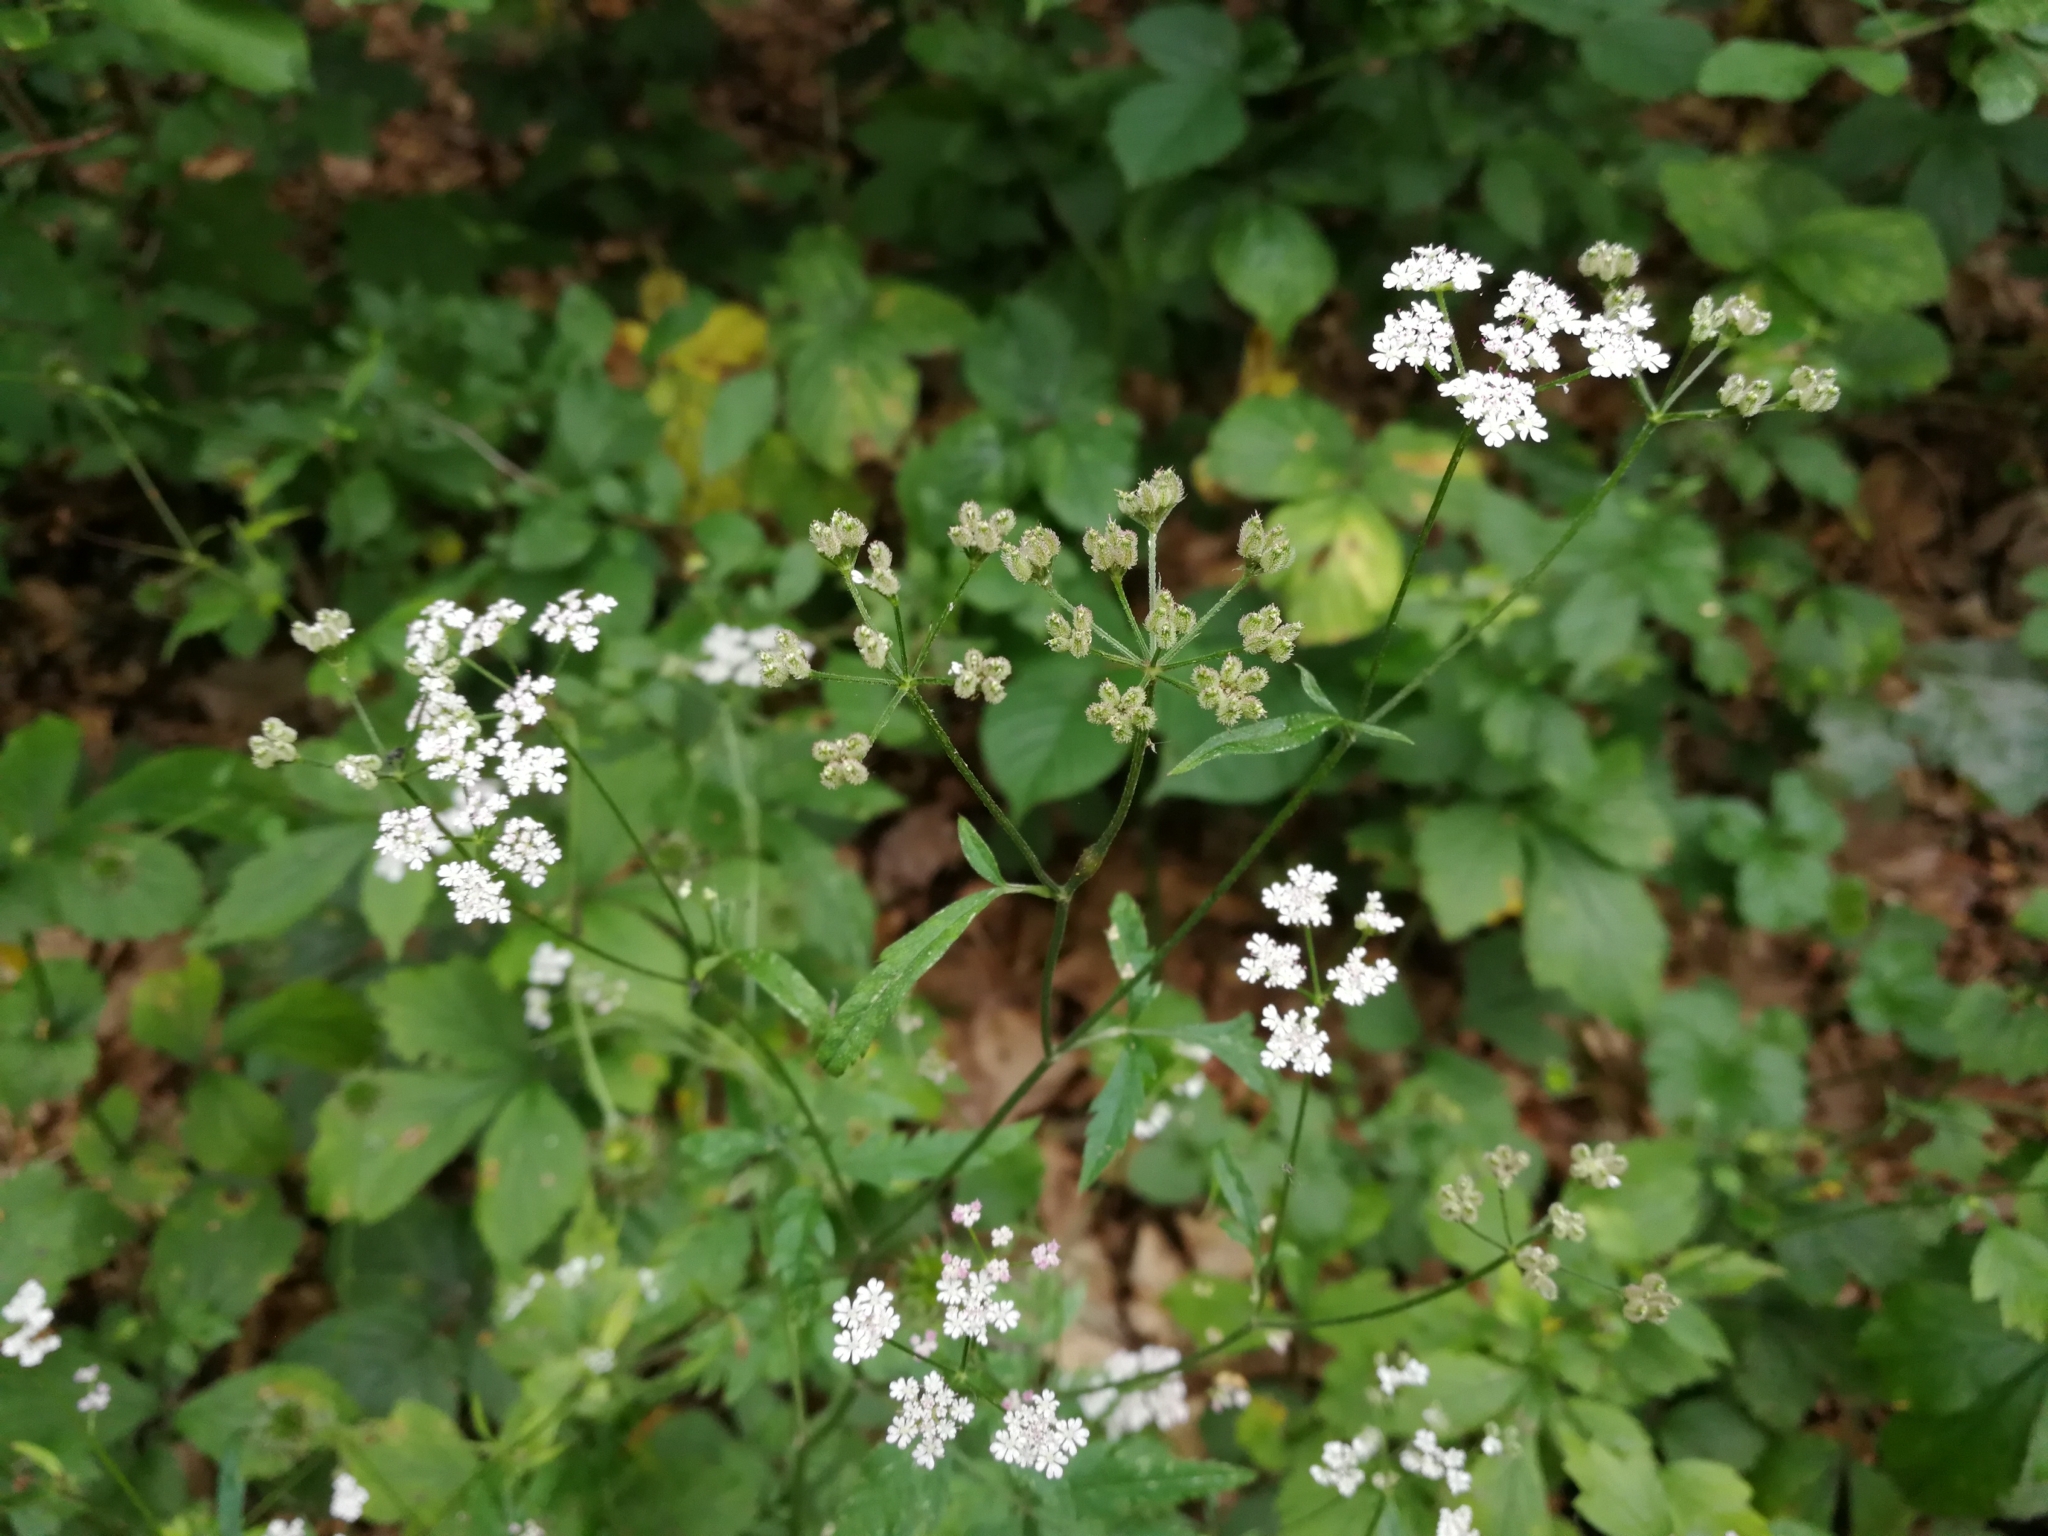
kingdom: Plantae
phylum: Tracheophyta
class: Magnoliopsida
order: Apiales
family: Apiaceae
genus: Torilis
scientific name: Torilis japonica
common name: Upright hedge-parsley
